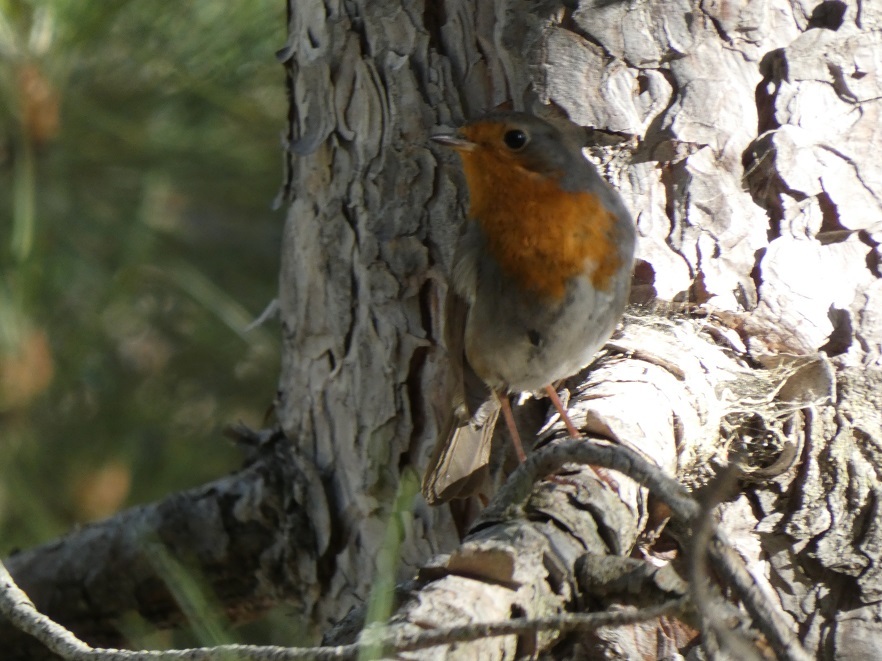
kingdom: Animalia
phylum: Chordata
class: Aves
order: Passeriformes
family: Muscicapidae
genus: Erithacus
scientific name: Erithacus rubecula
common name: European robin
